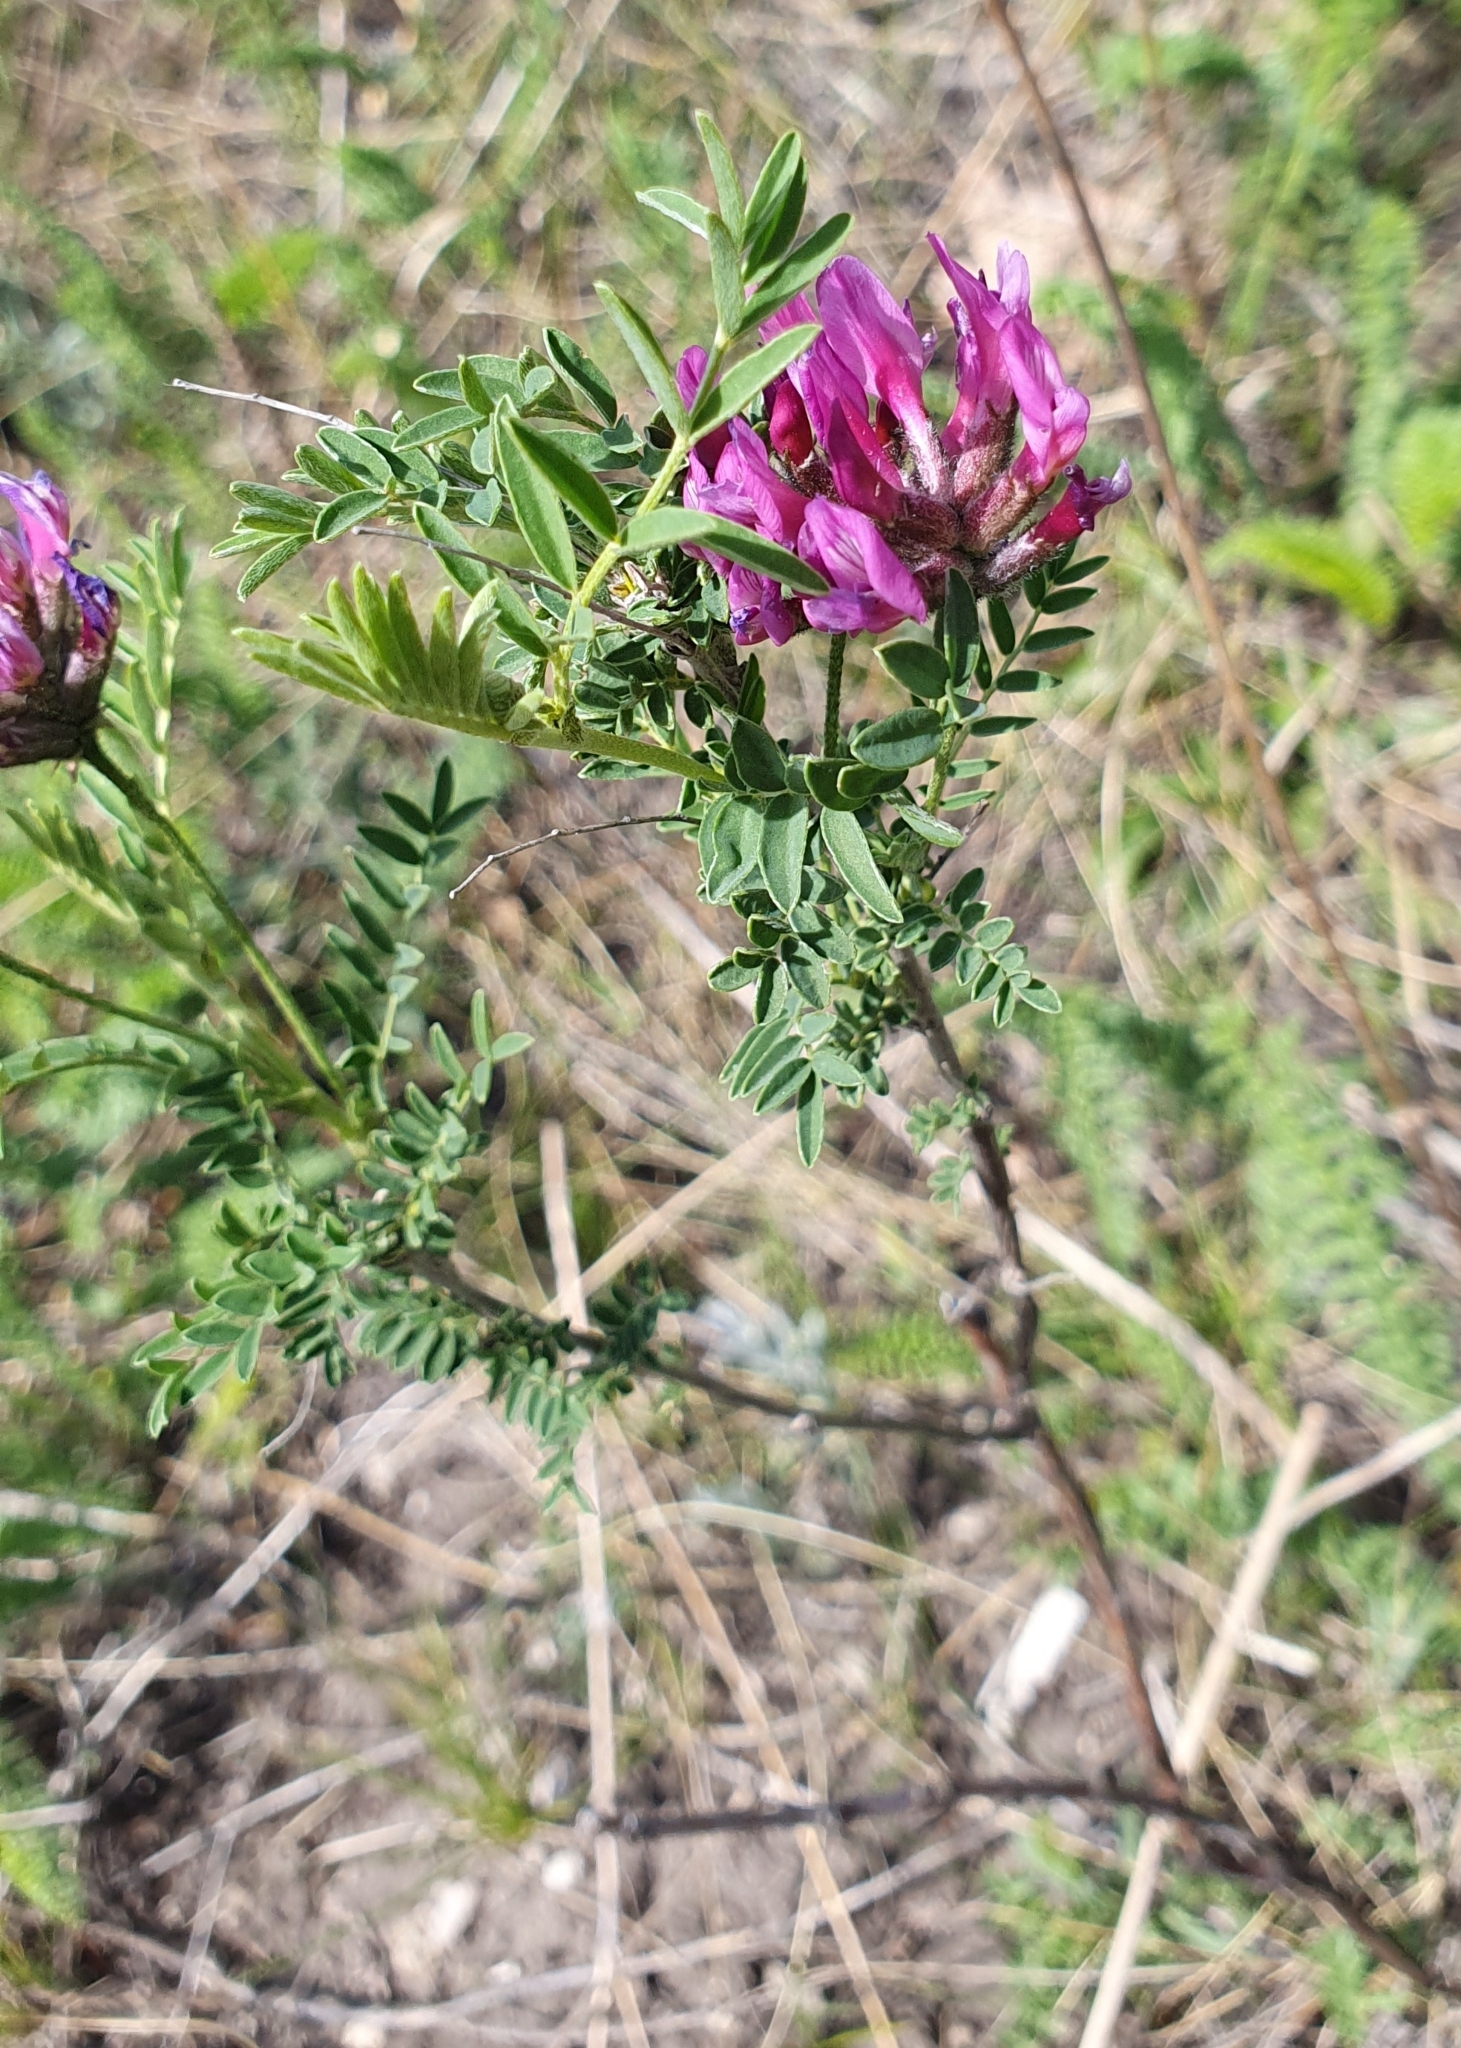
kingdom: Plantae
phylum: Tracheophyta
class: Magnoliopsida
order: Fabales
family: Fabaceae
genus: Astragalus
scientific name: Astragalus cornutus
